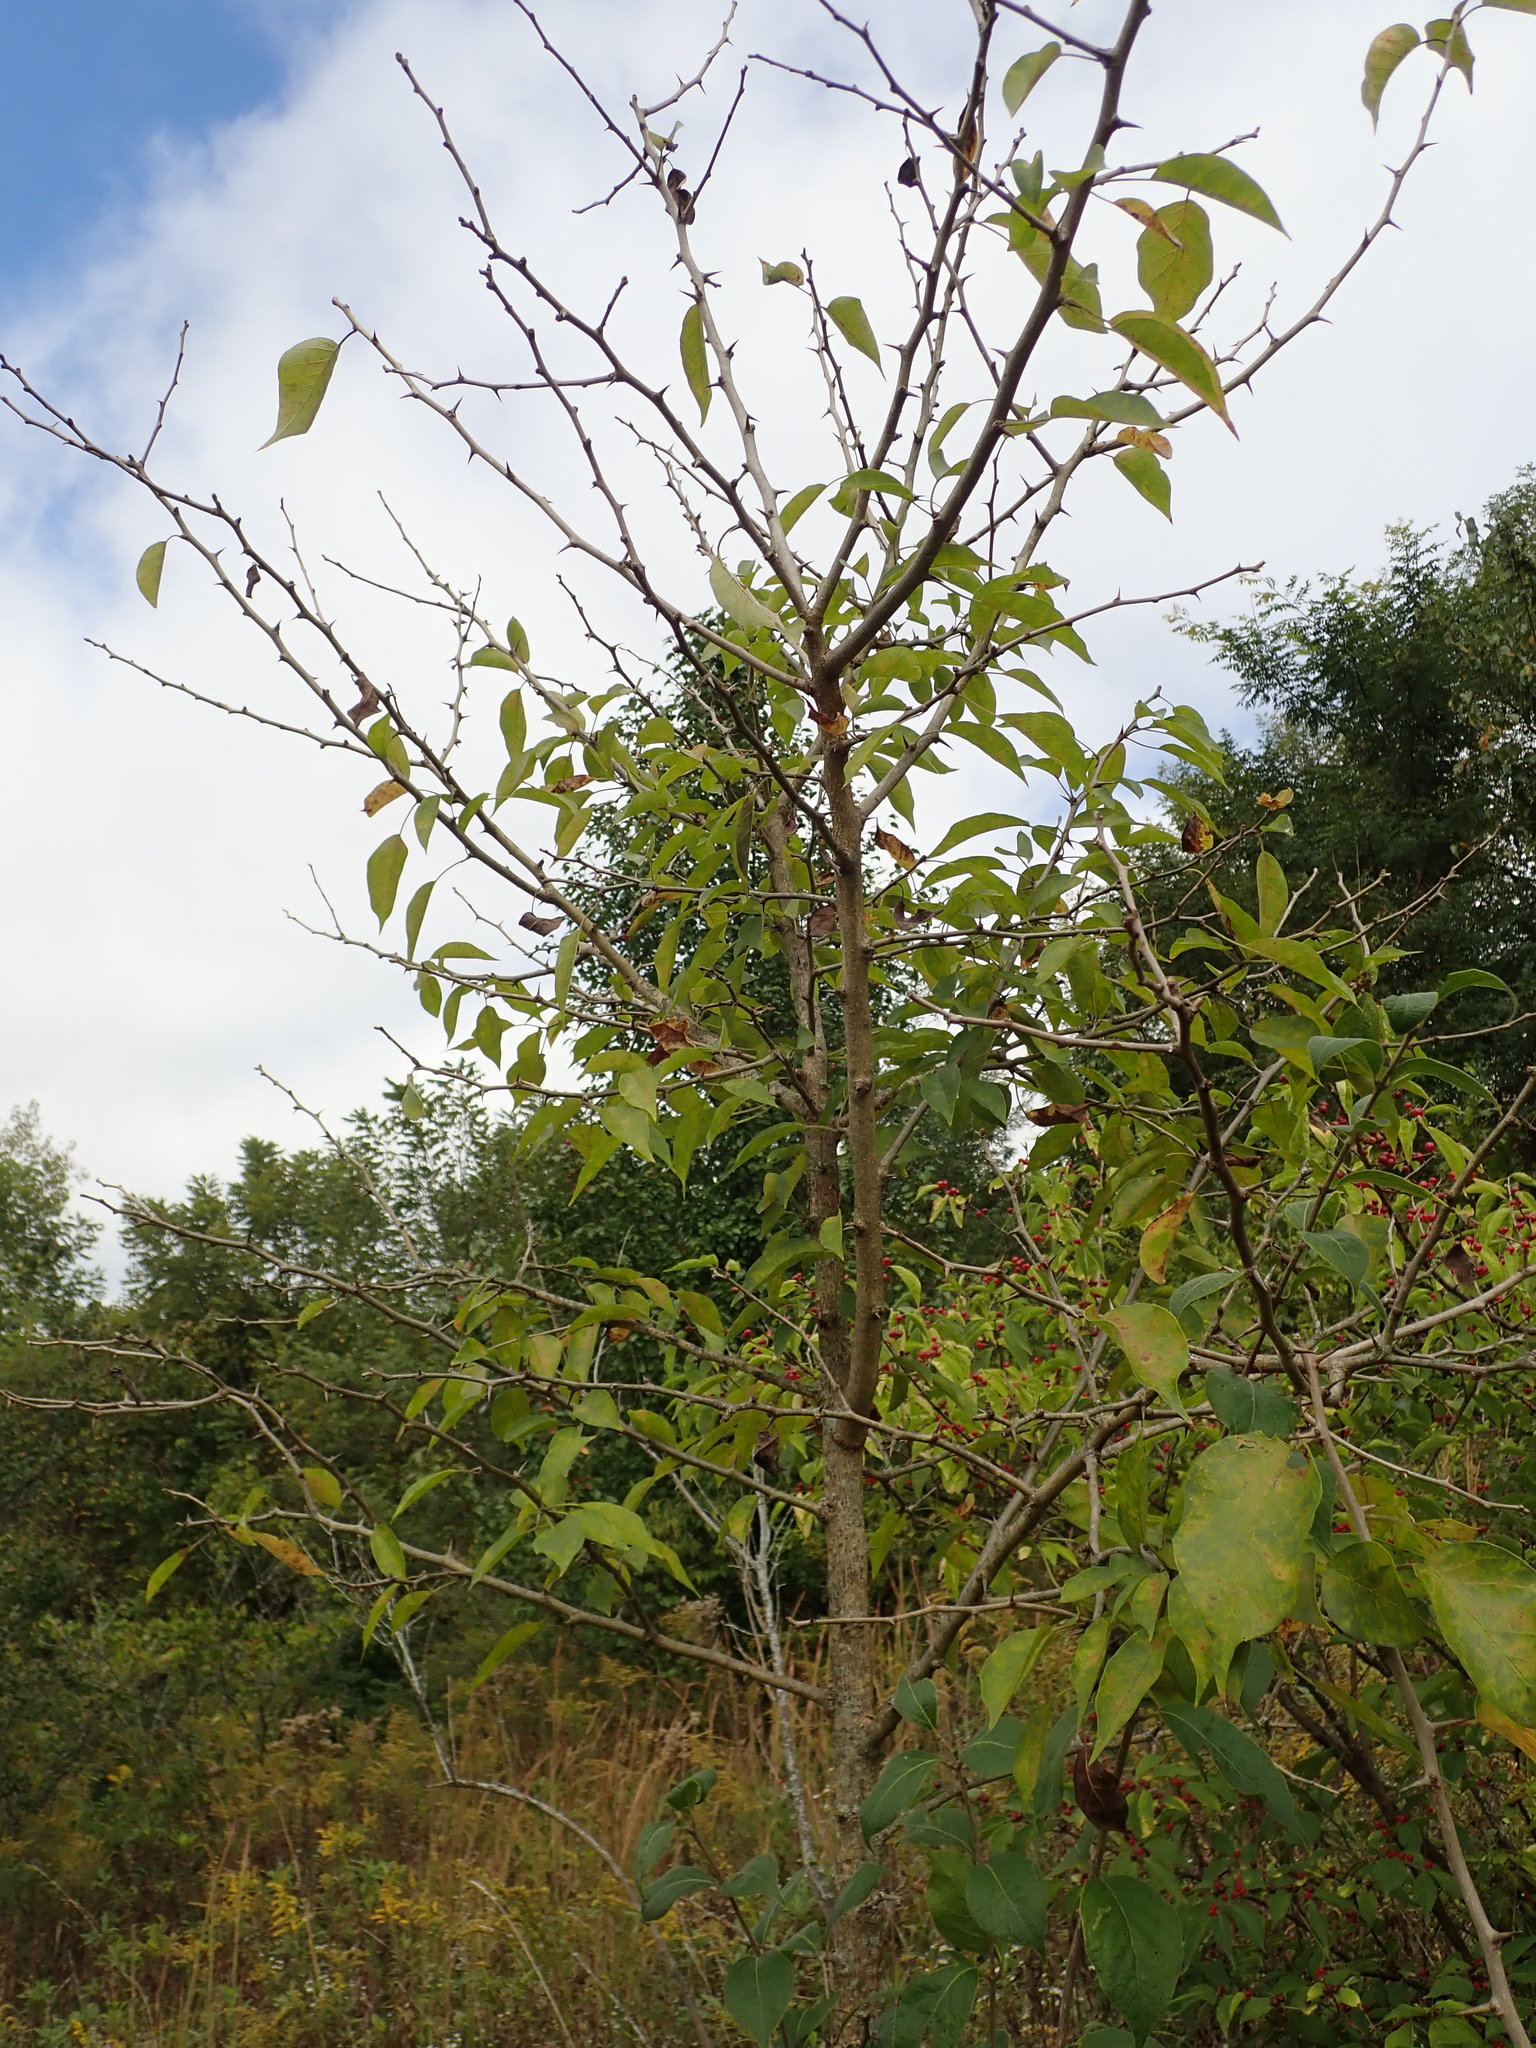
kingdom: Plantae
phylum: Tracheophyta
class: Magnoliopsida
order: Rosales
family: Moraceae
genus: Maclura
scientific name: Maclura pomifera
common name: Osage-orange
